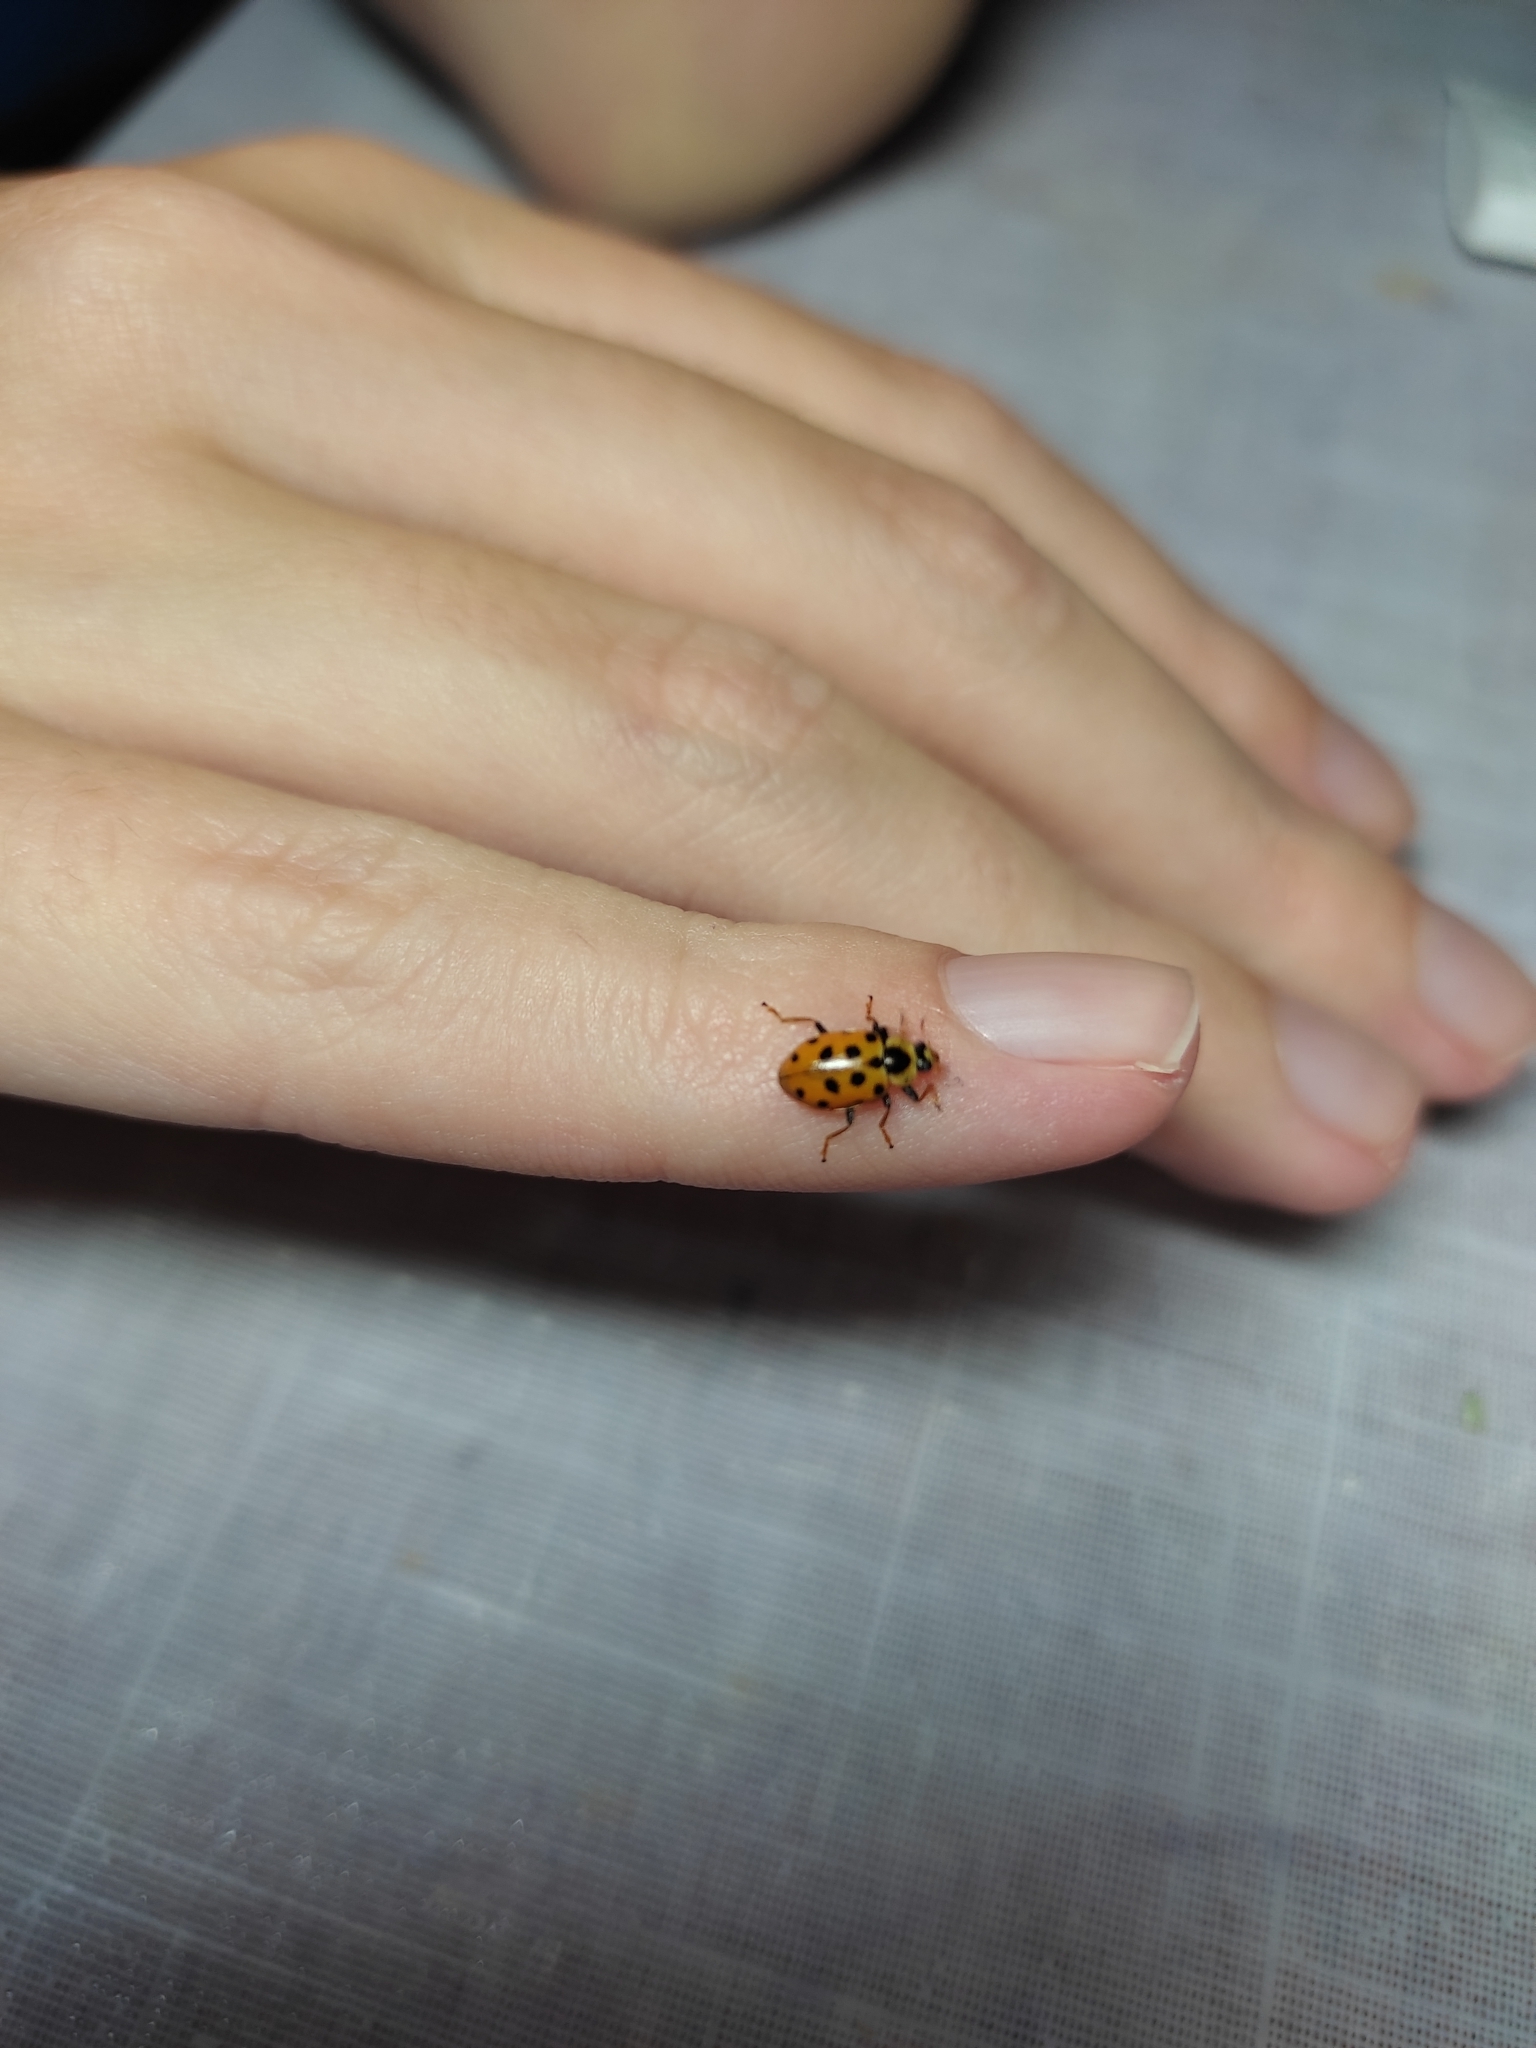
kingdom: Animalia
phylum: Arthropoda
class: Insecta
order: Coleoptera
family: Coccinellidae
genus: Hippodamia
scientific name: Hippodamia tredecimpunctata
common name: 13-spot ladybird
